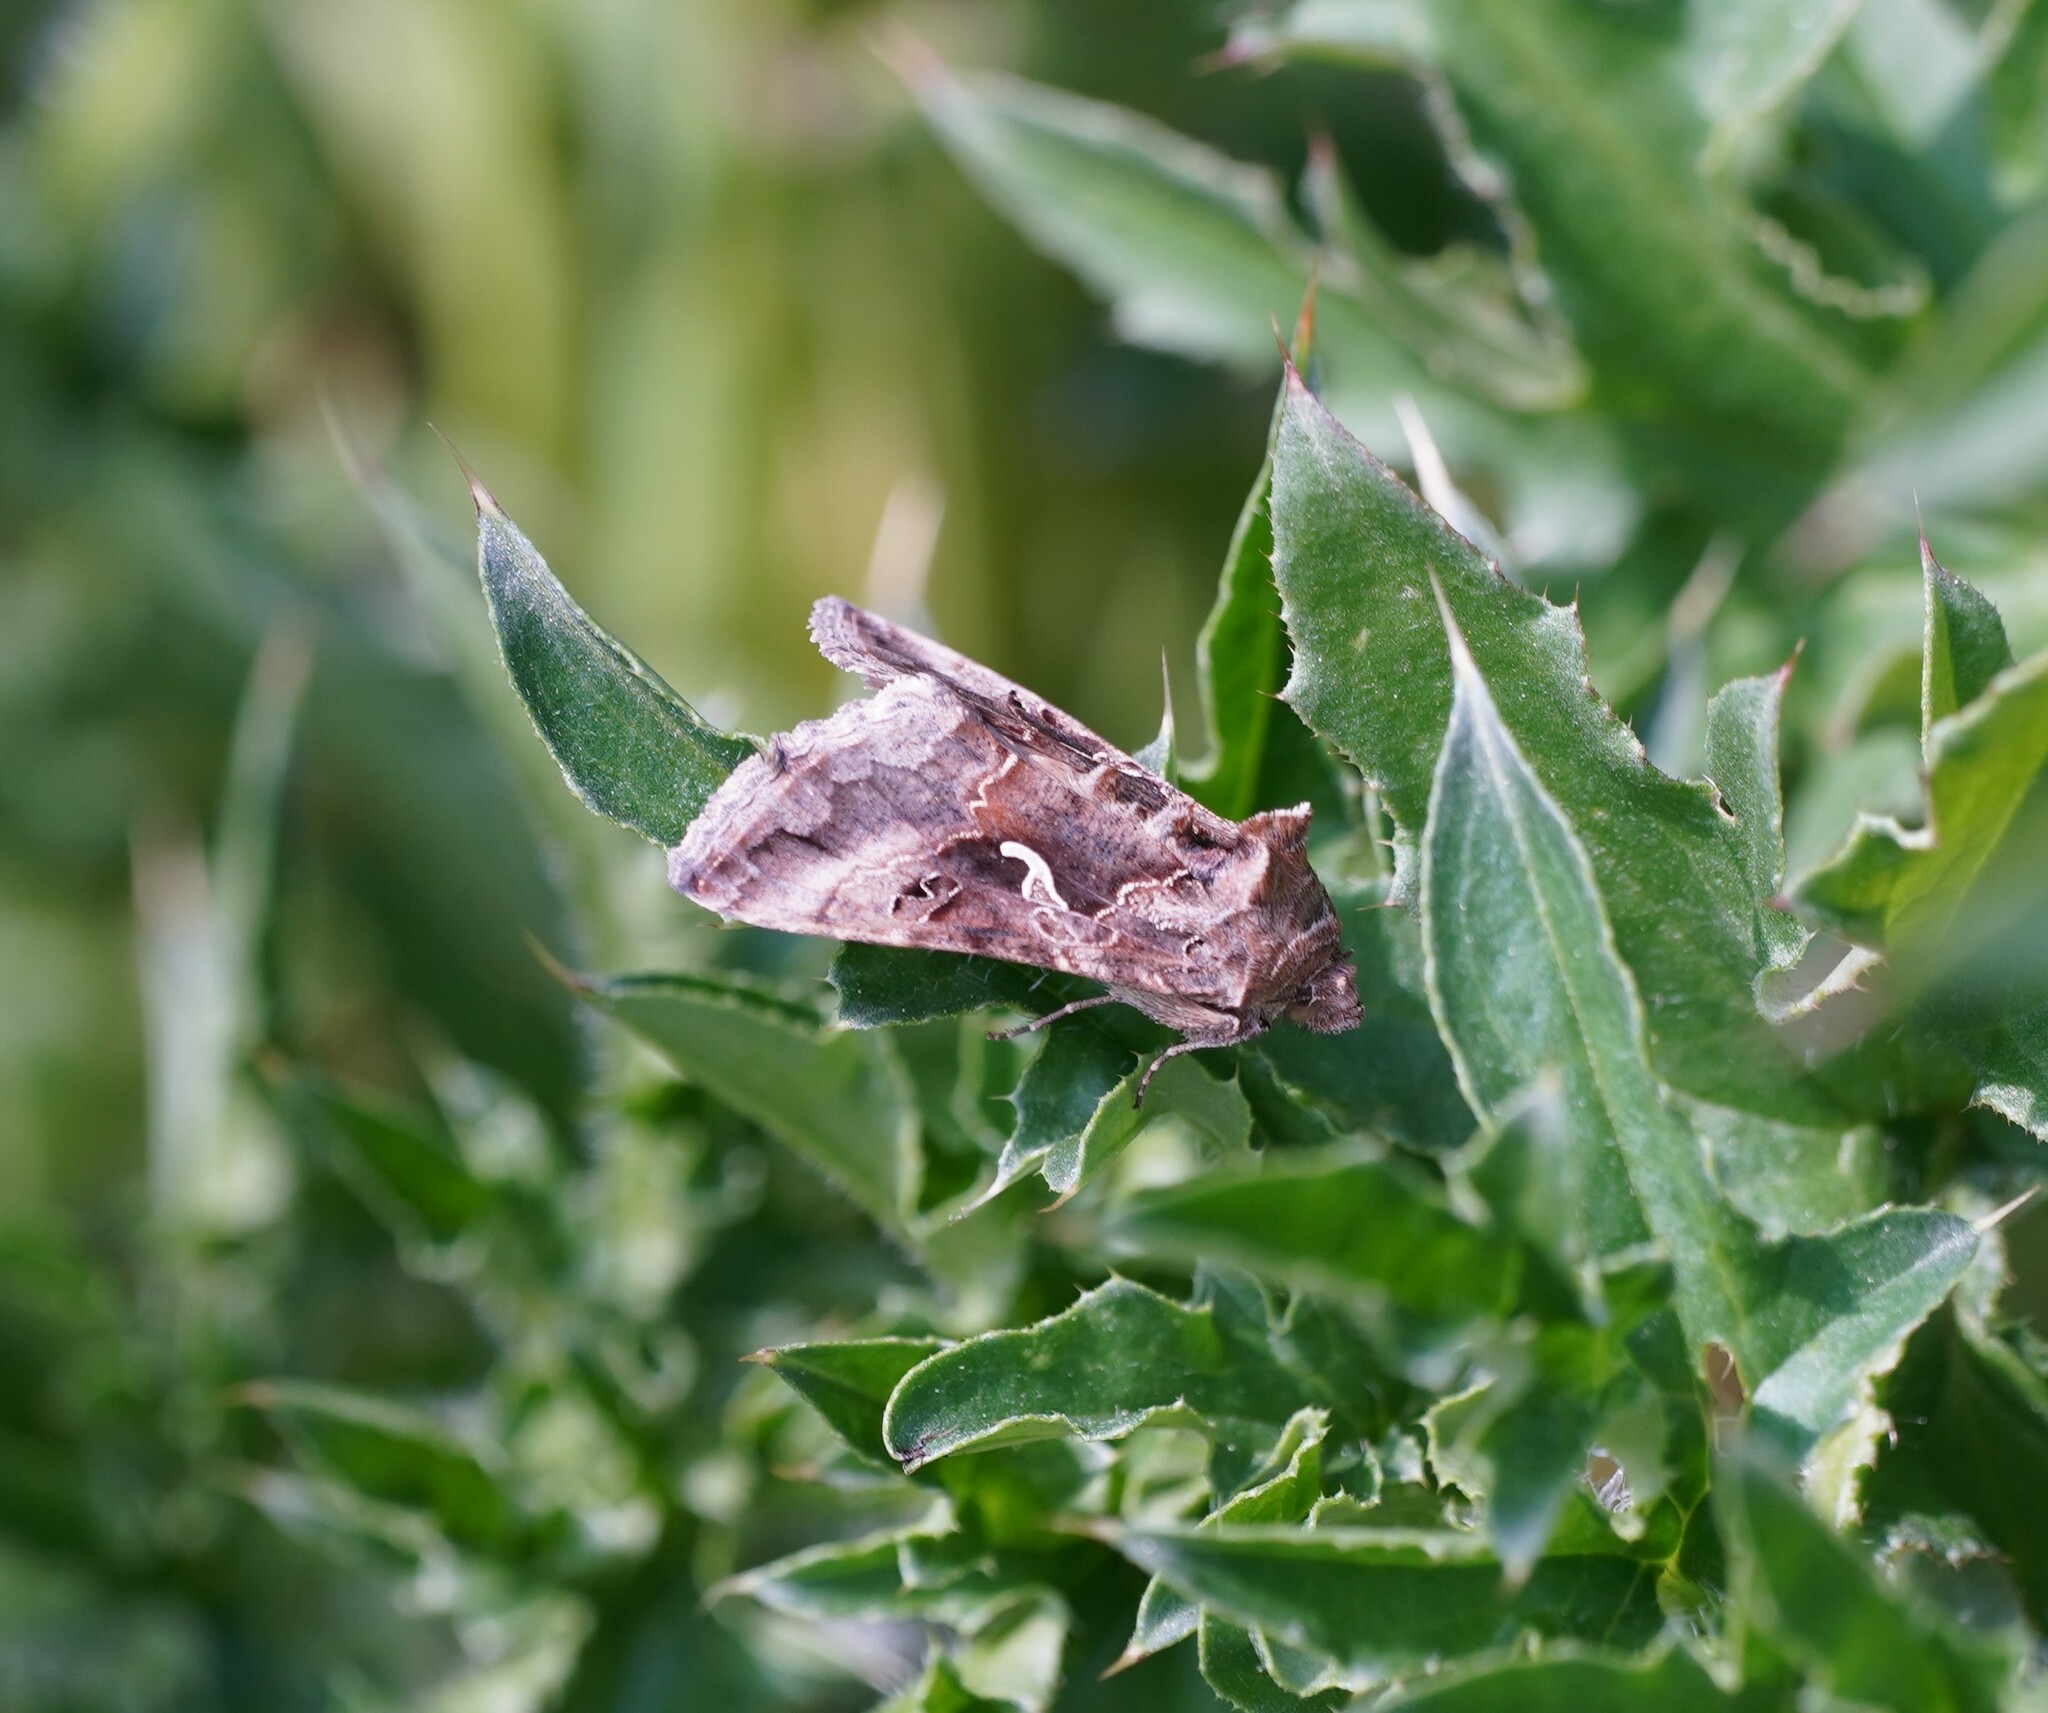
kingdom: Animalia
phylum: Arthropoda
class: Insecta
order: Lepidoptera
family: Noctuidae
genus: Autographa
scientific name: Autographa gamma
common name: Silver y
